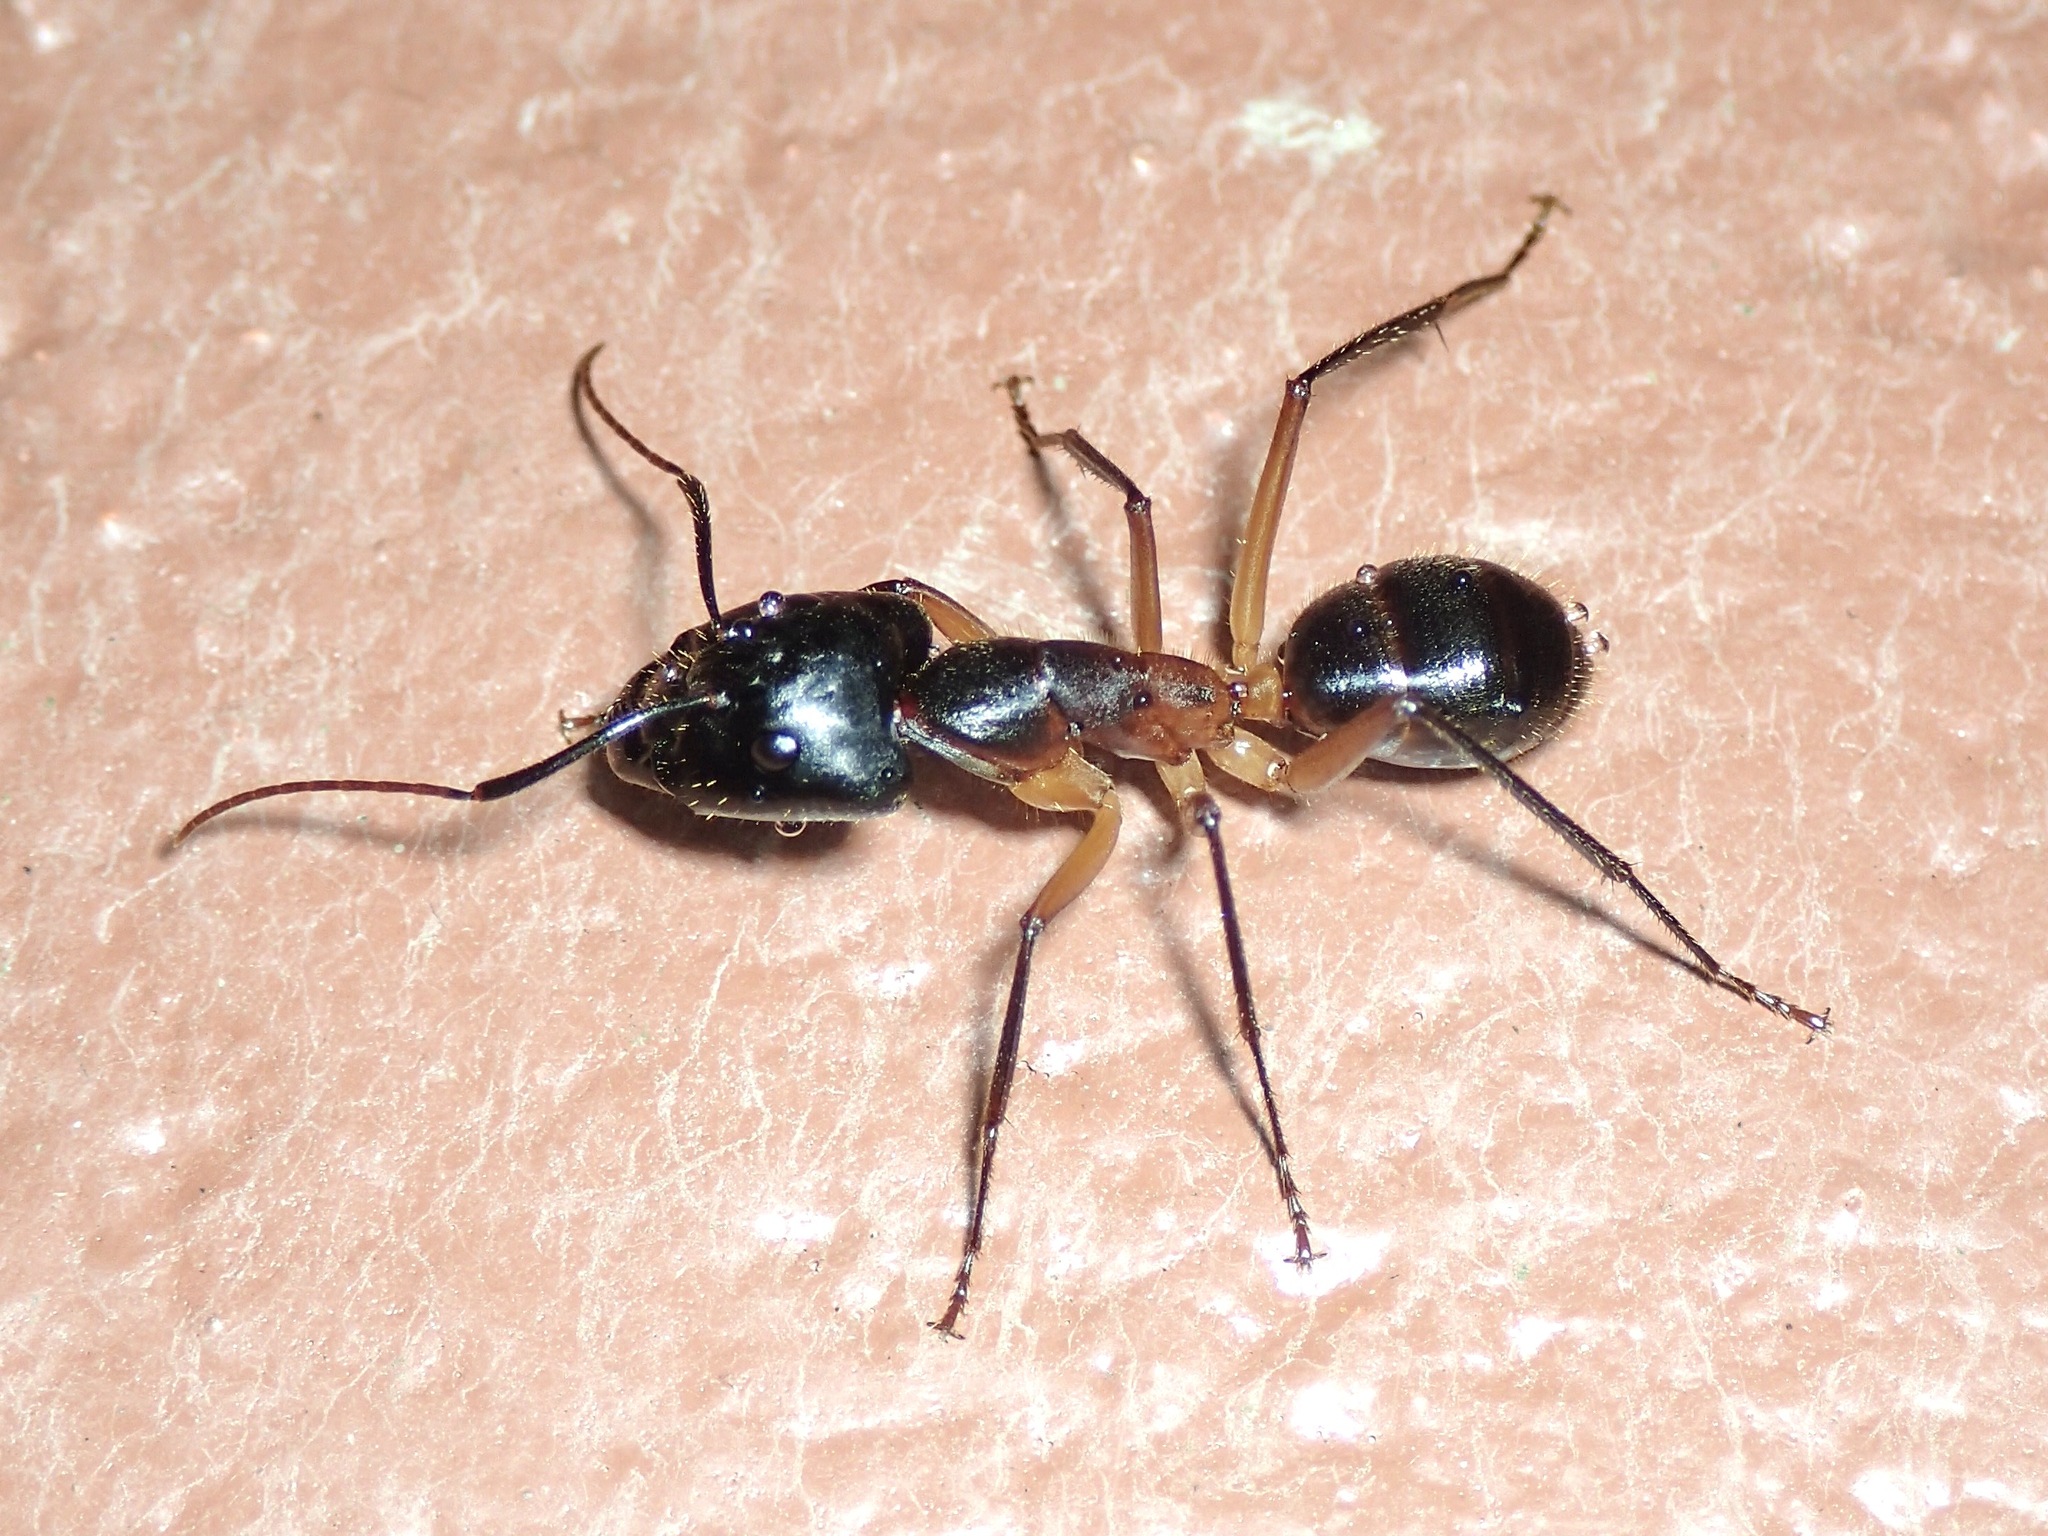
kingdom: Animalia
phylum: Arthropoda
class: Insecta
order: Hymenoptera
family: Formicidae
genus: Camponotus
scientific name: Camponotus
